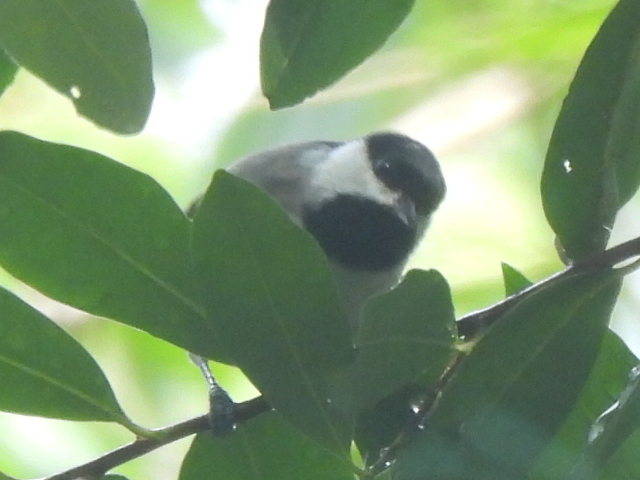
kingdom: Animalia
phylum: Chordata
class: Aves
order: Passeriformes
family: Paridae
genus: Poecile
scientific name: Poecile carolinensis
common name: Carolina chickadee
